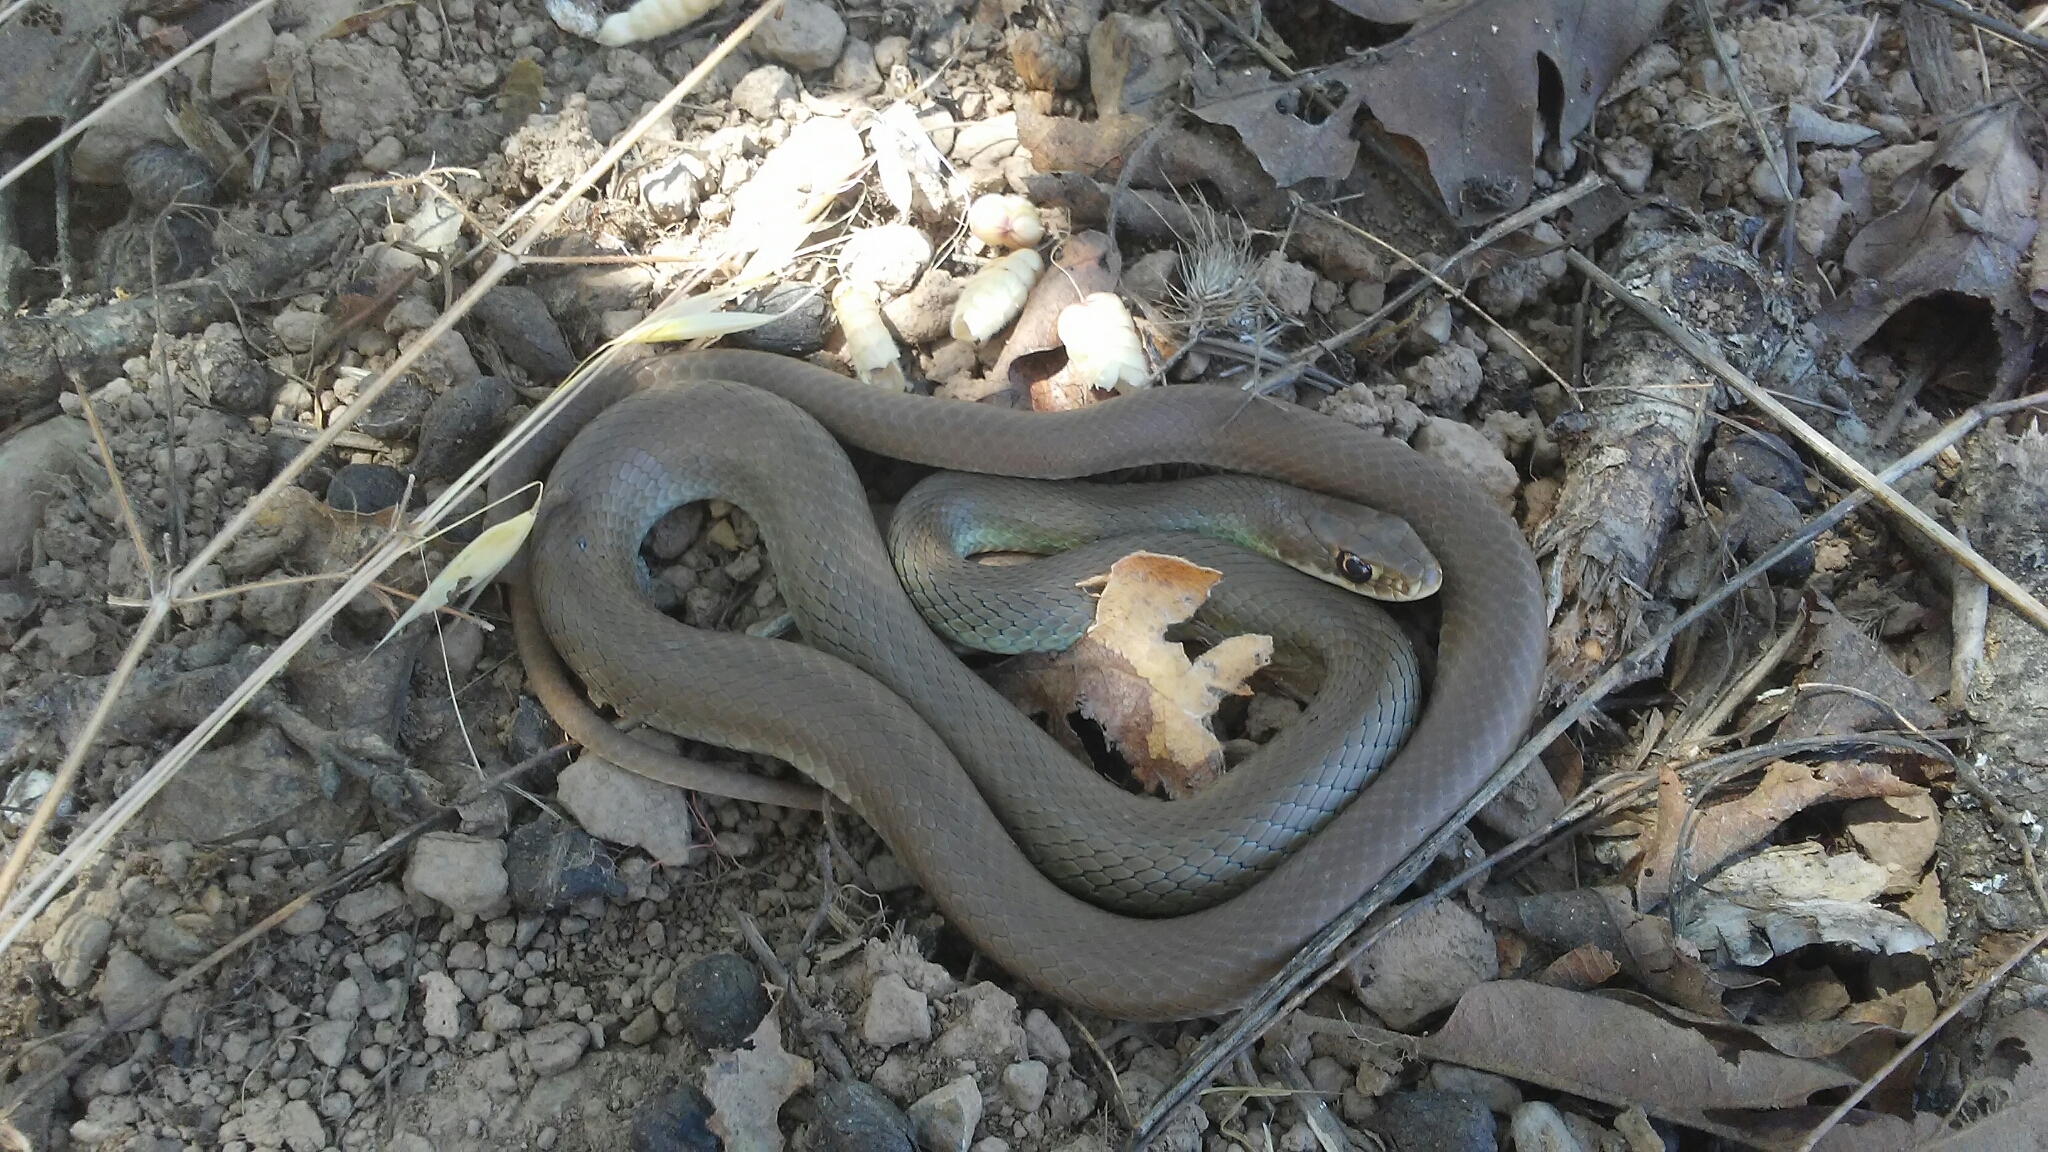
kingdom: Animalia
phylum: Chordata
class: Squamata
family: Colubridae
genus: Coluber
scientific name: Coluber constrictor
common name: Eastern racer
